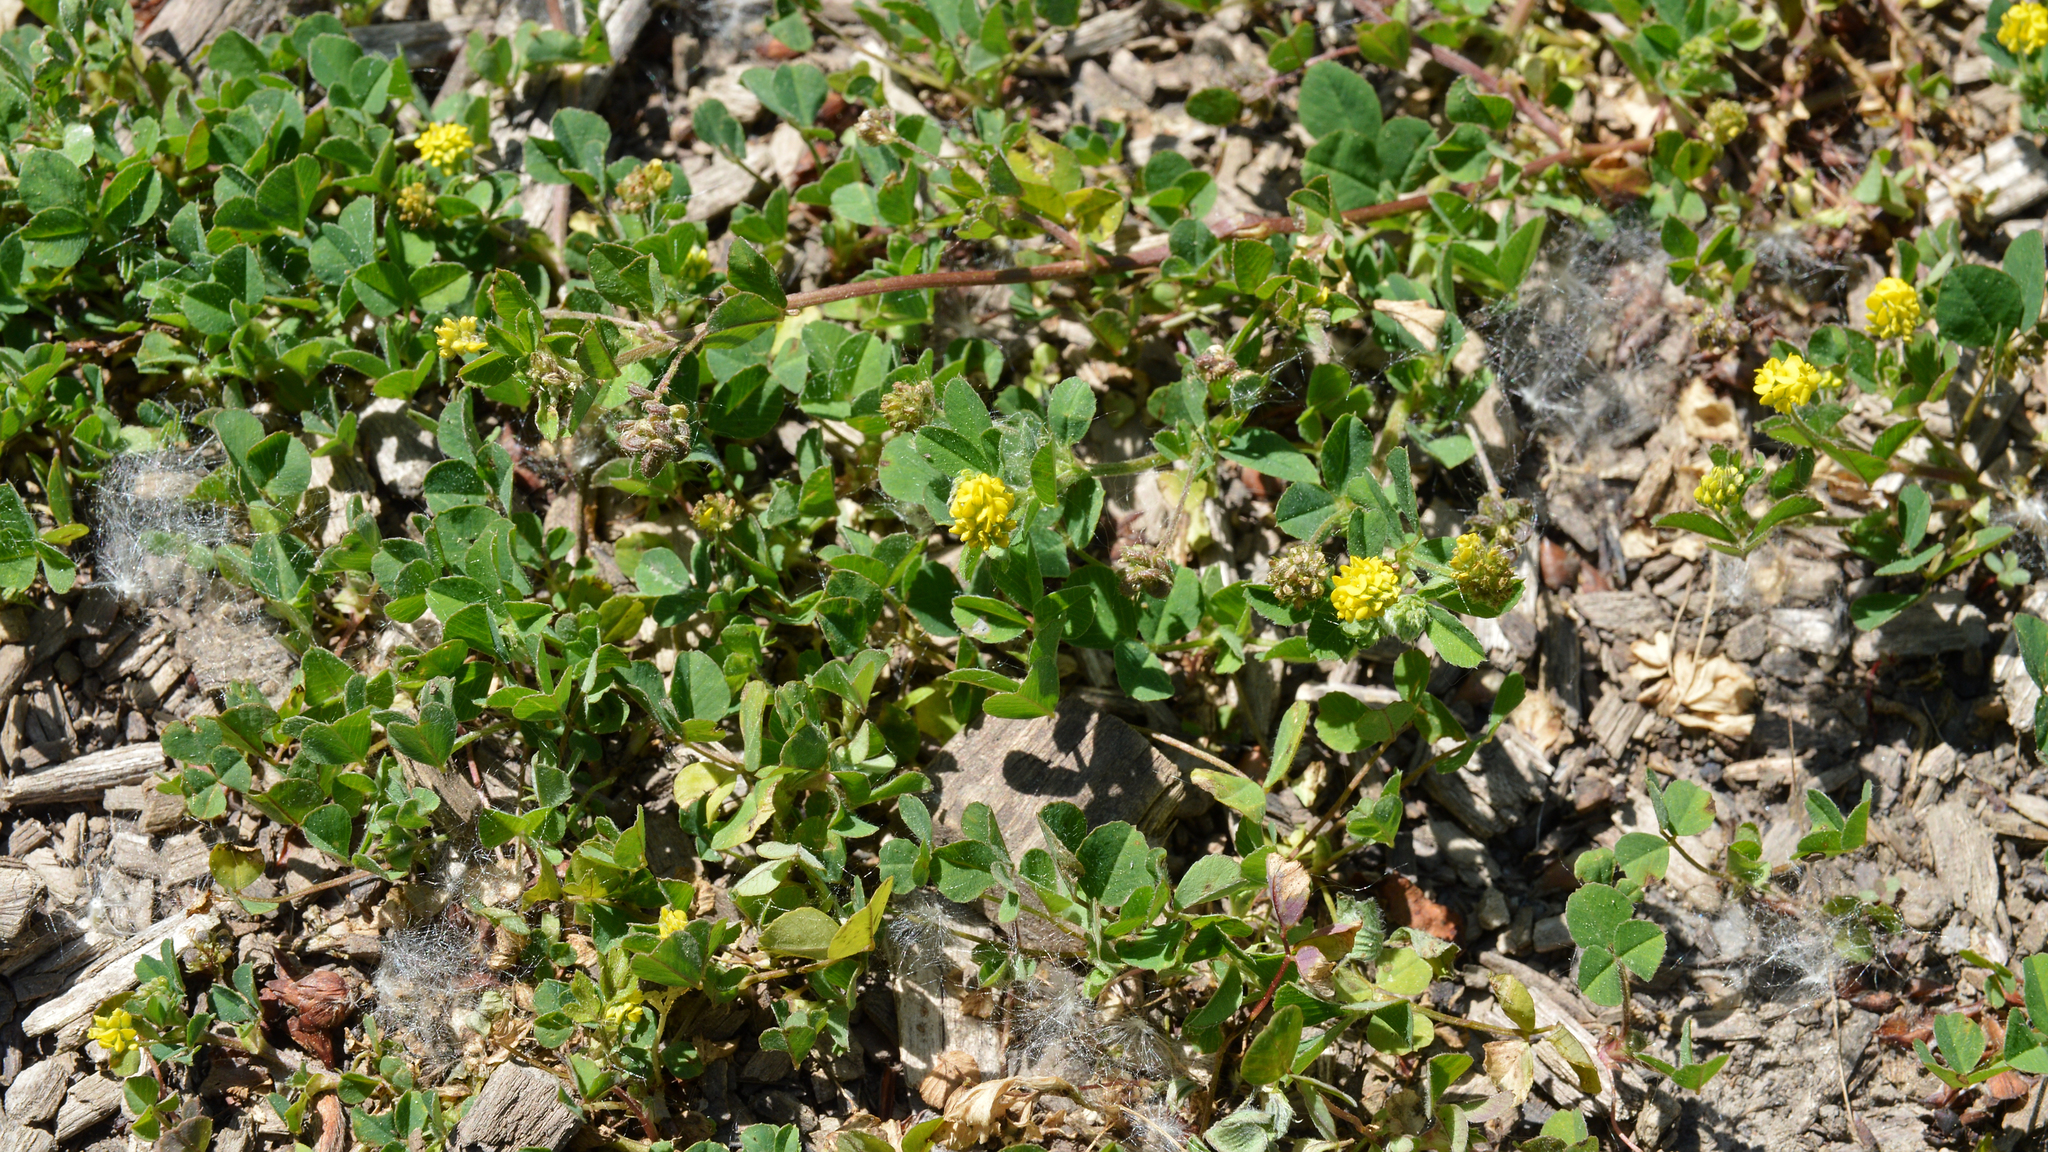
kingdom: Plantae
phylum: Tracheophyta
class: Magnoliopsida
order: Fabales
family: Fabaceae
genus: Medicago
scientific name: Medicago lupulina
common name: Black medick
